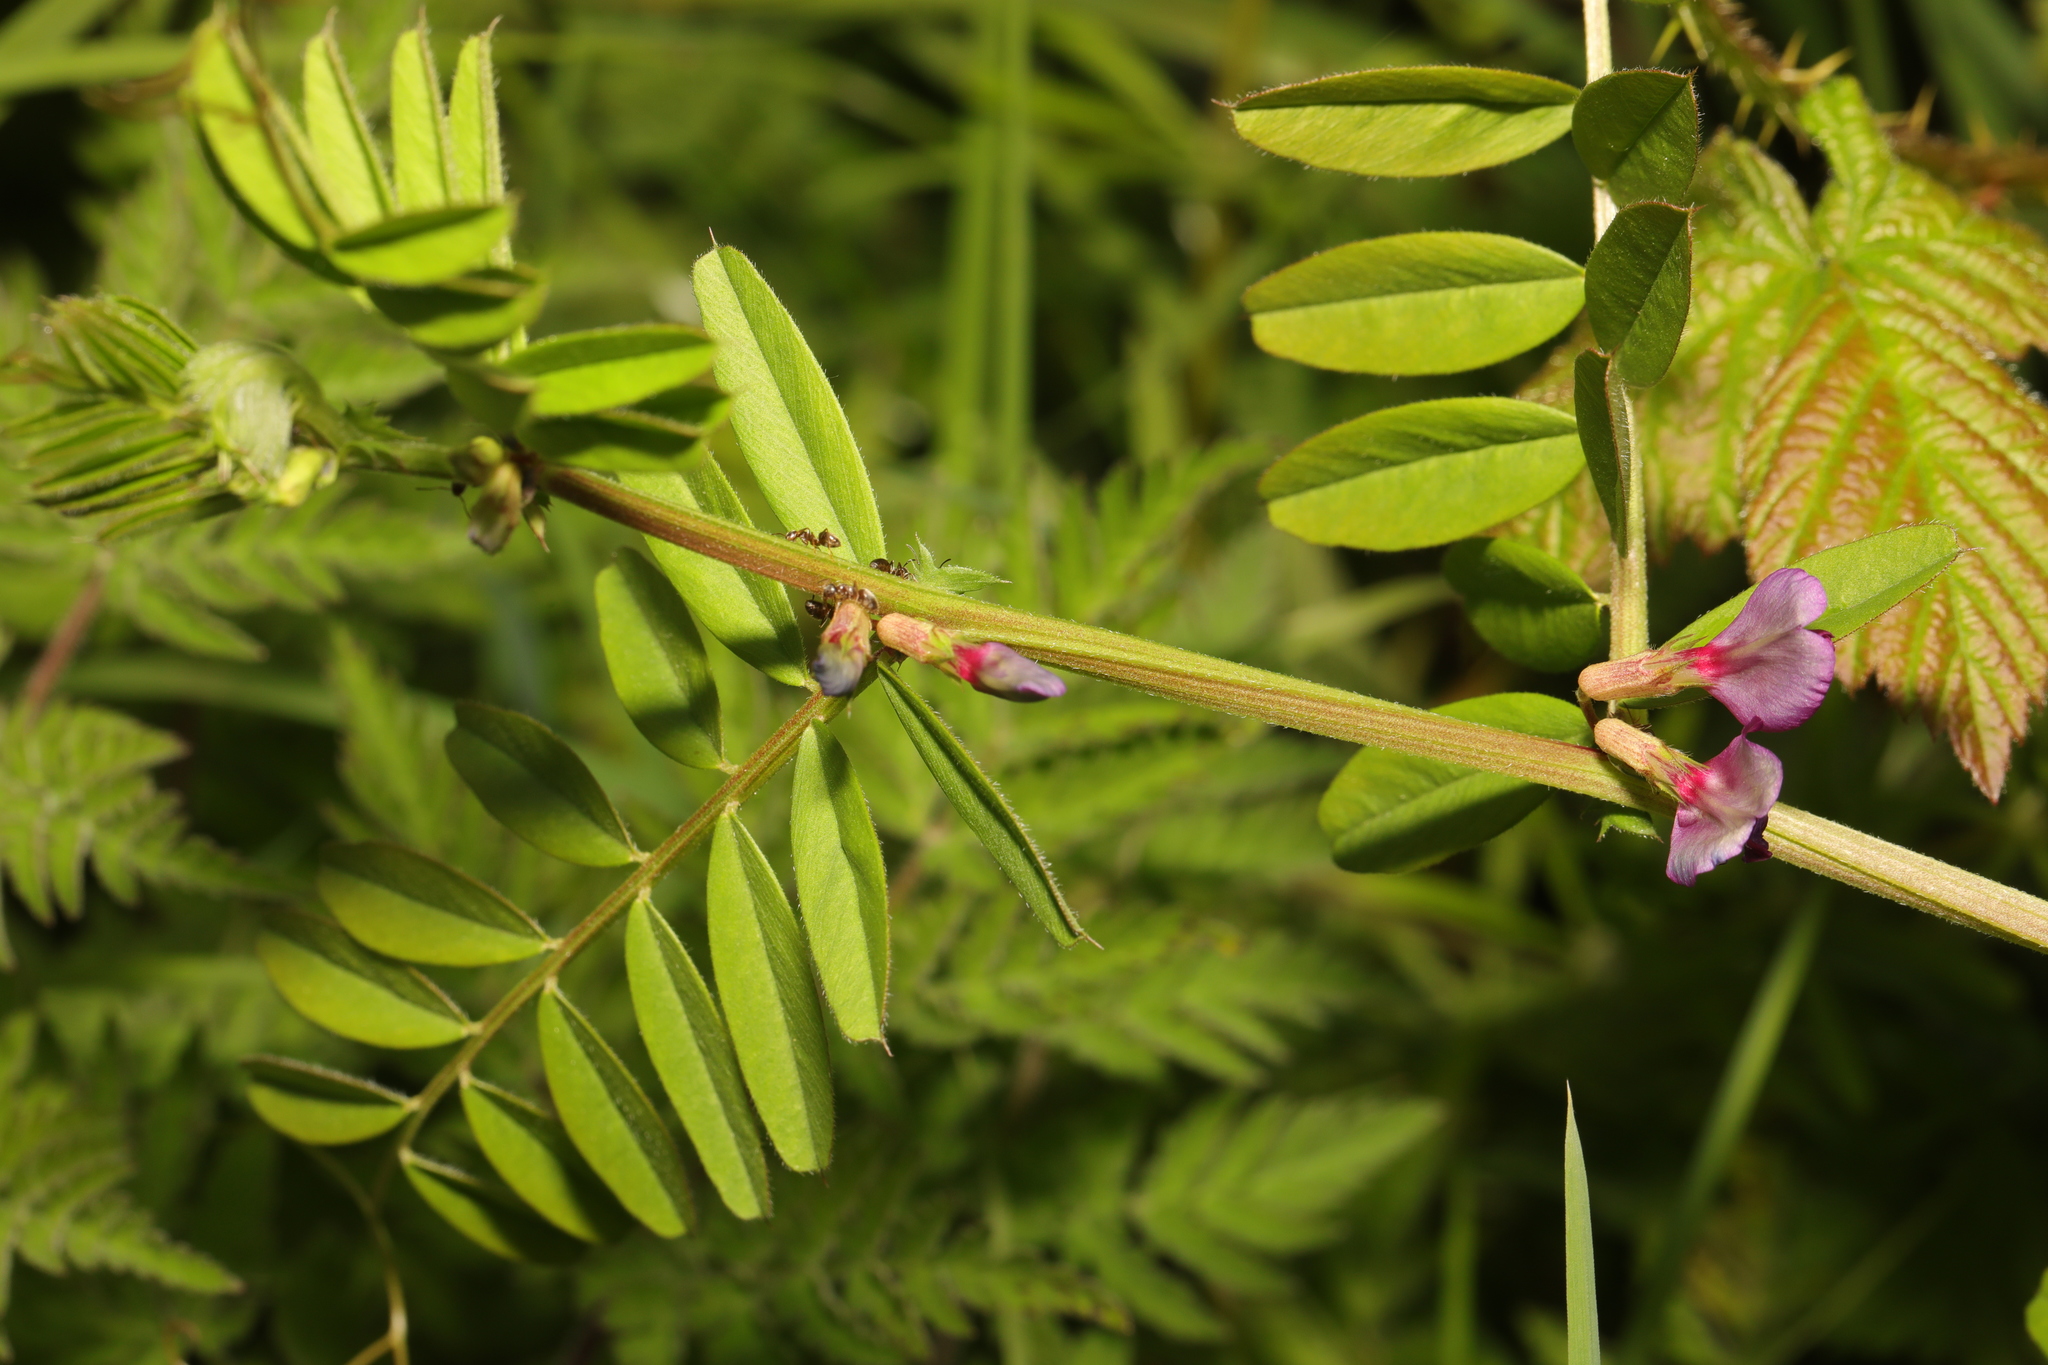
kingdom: Plantae
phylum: Tracheophyta
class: Magnoliopsida
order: Fabales
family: Fabaceae
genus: Vicia
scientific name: Vicia sativa
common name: Garden vetch
